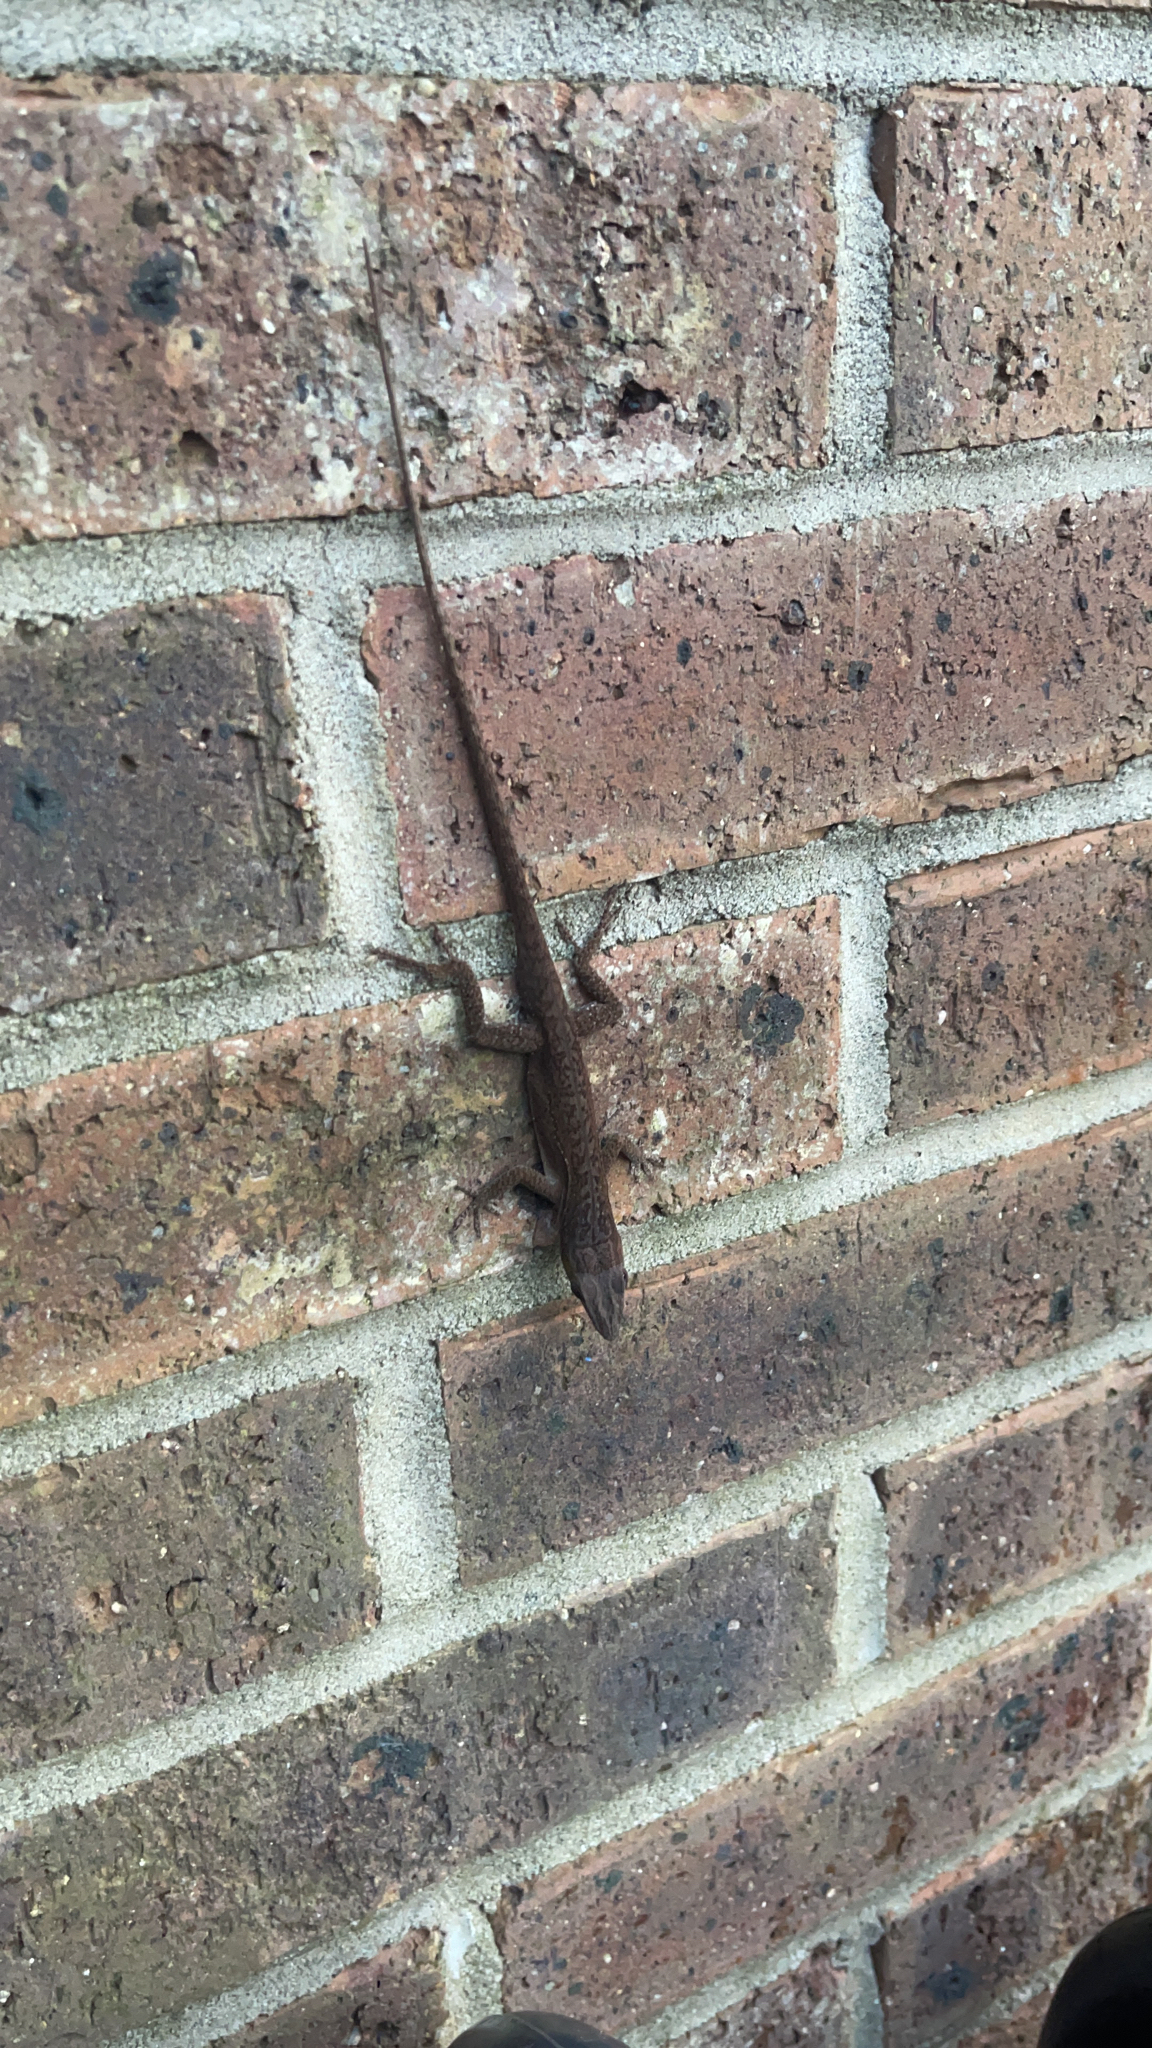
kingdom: Animalia
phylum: Chordata
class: Squamata
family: Dactyloidae
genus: Anolis
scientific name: Anolis carolinensis
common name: Green anole
